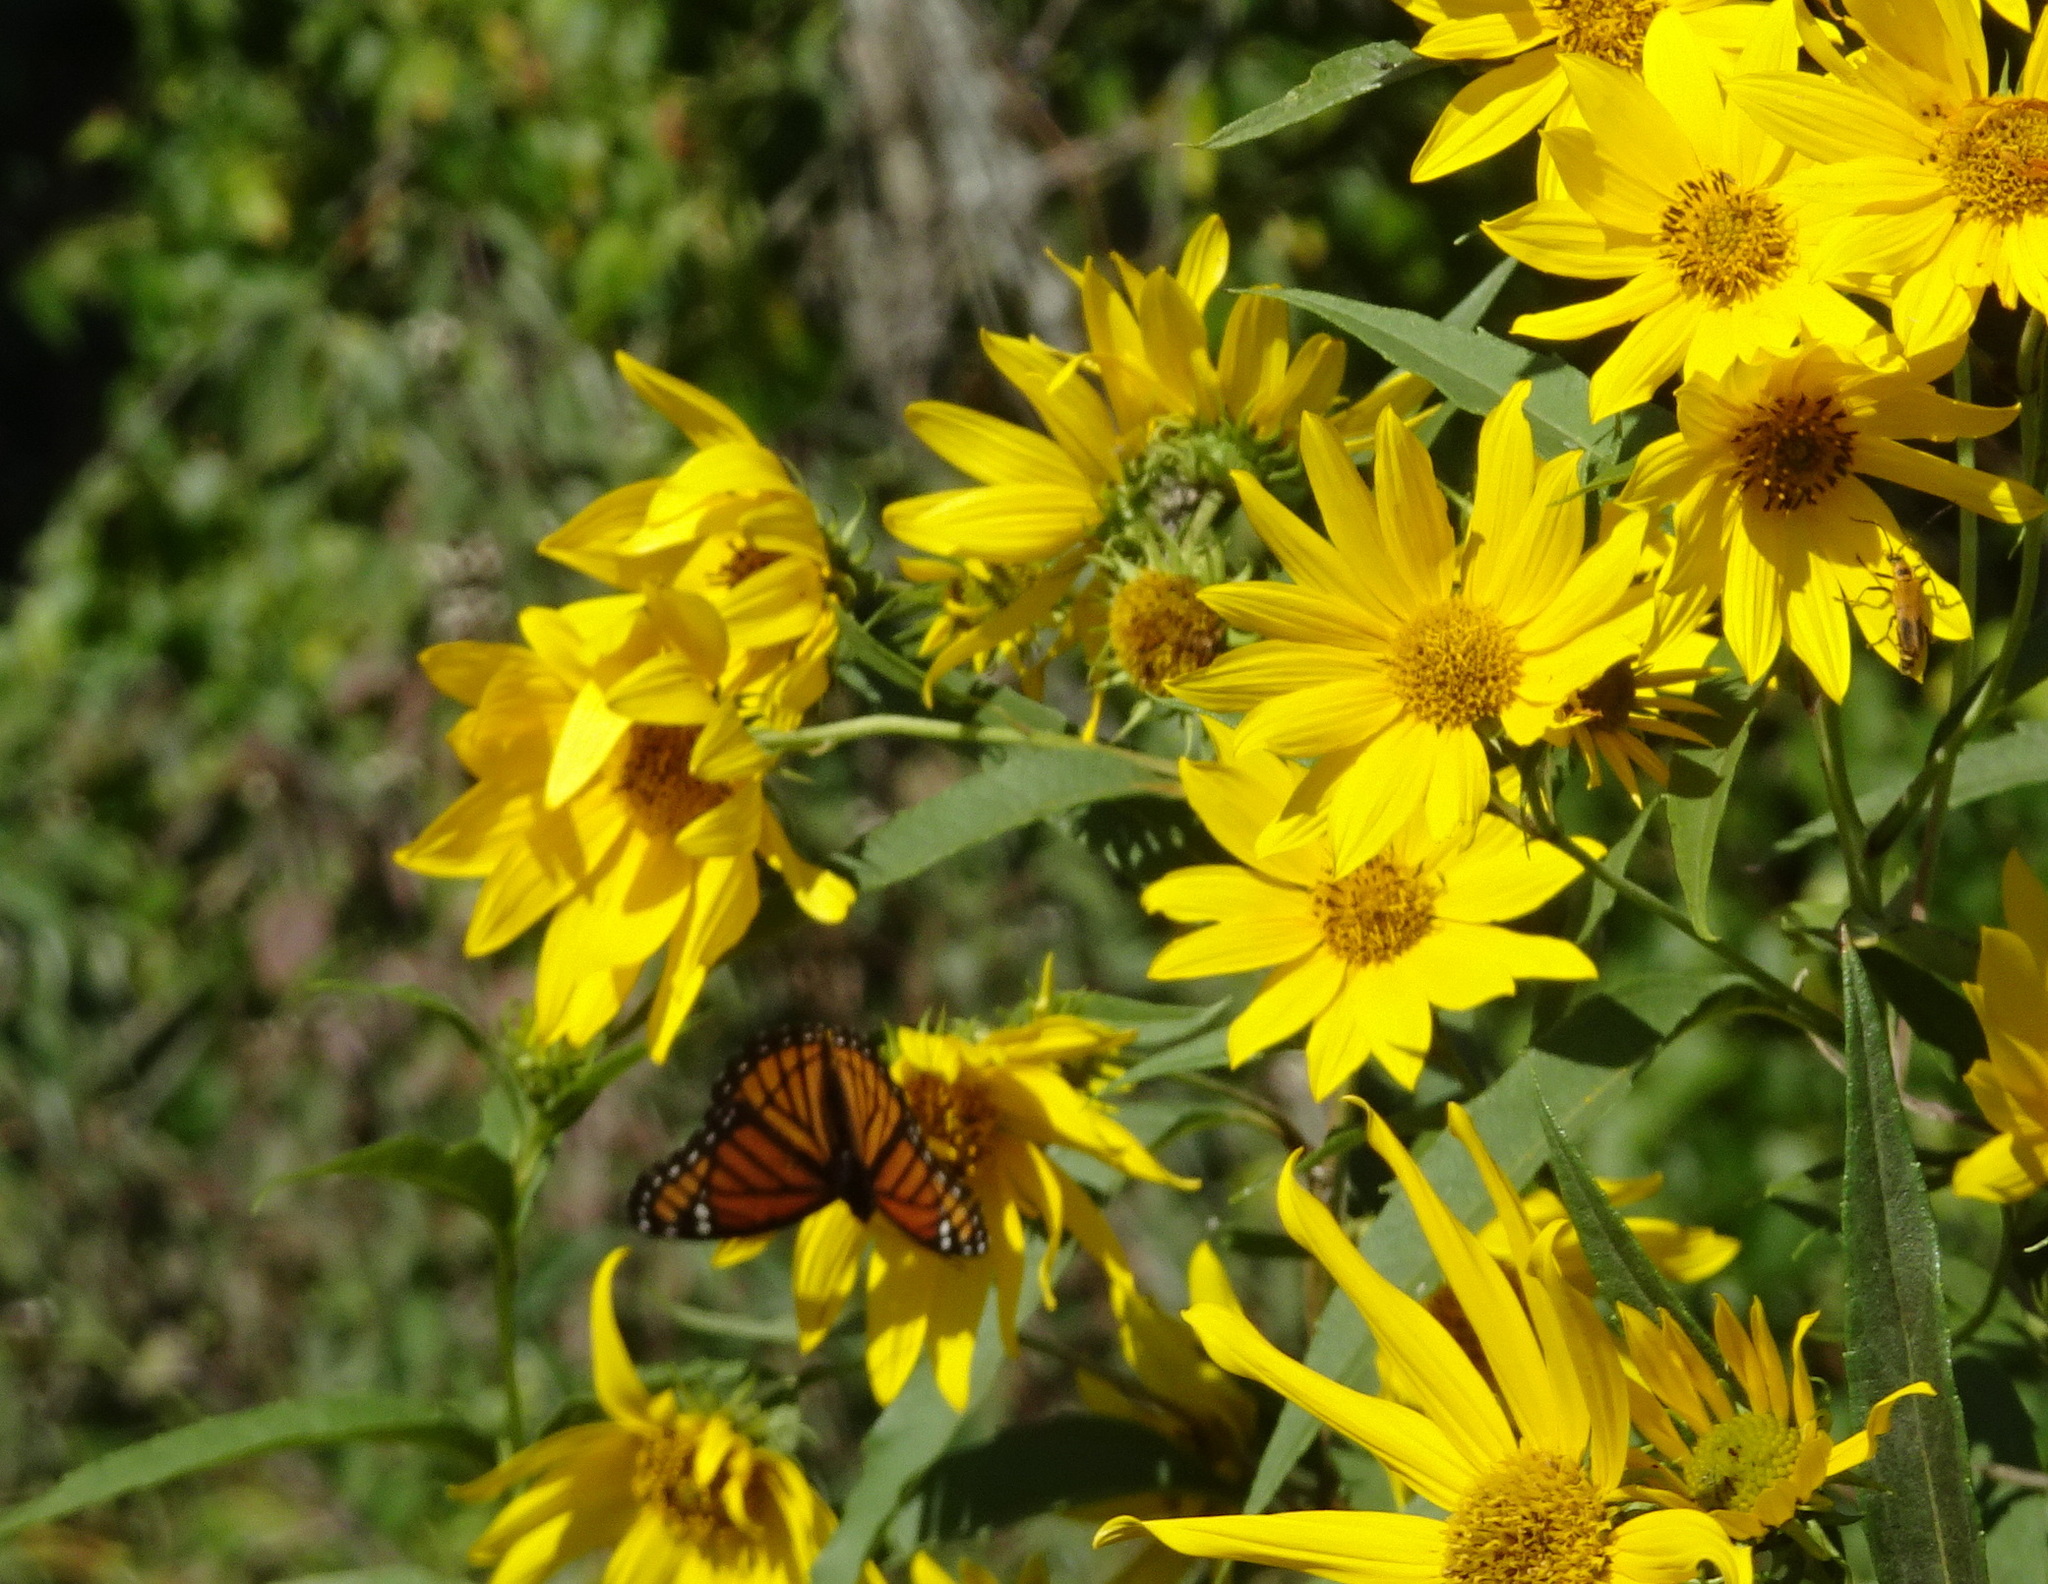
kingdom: Animalia
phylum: Arthropoda
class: Insecta
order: Lepidoptera
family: Nymphalidae
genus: Limenitis
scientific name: Limenitis archippus
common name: Viceroy
